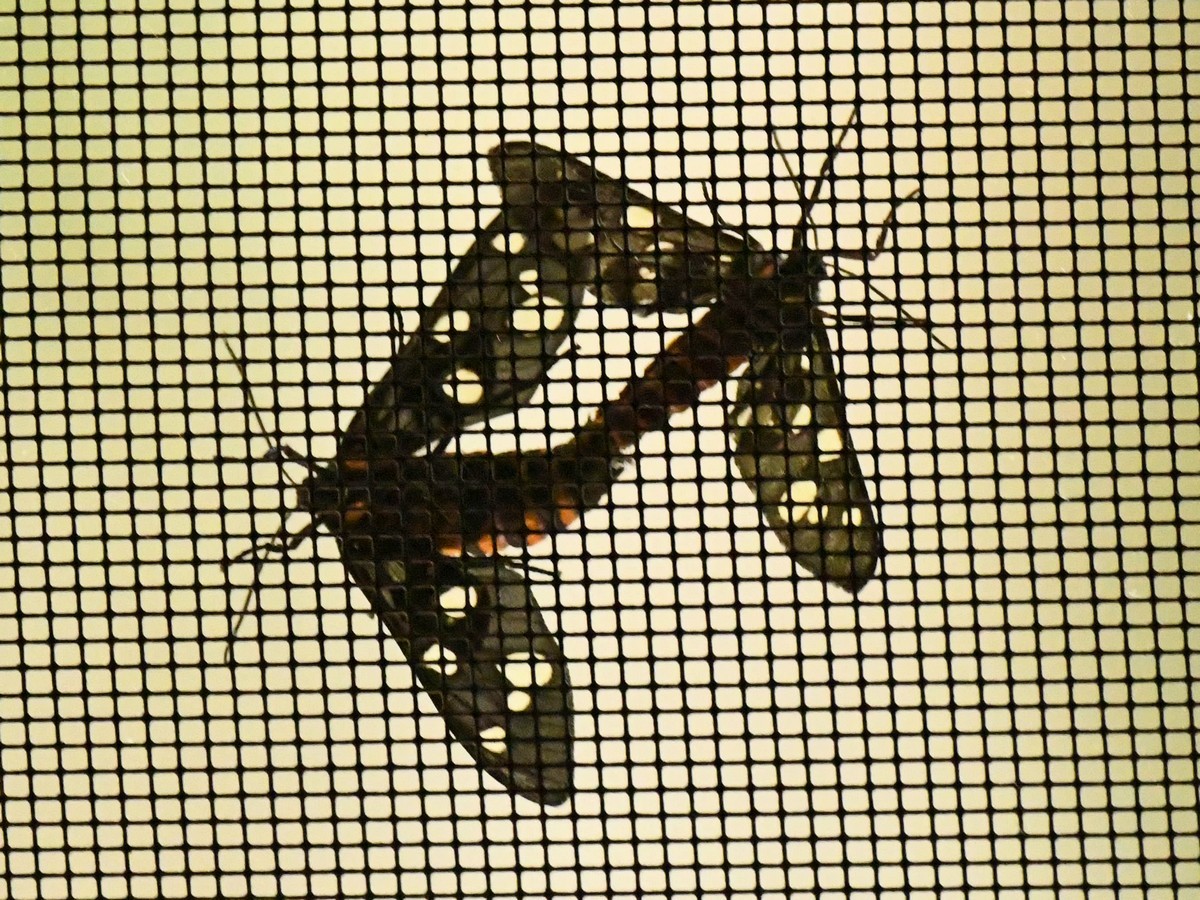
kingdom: Animalia
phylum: Arthropoda
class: Insecta
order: Lepidoptera
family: Erebidae
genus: Amata
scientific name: Amata passalis
